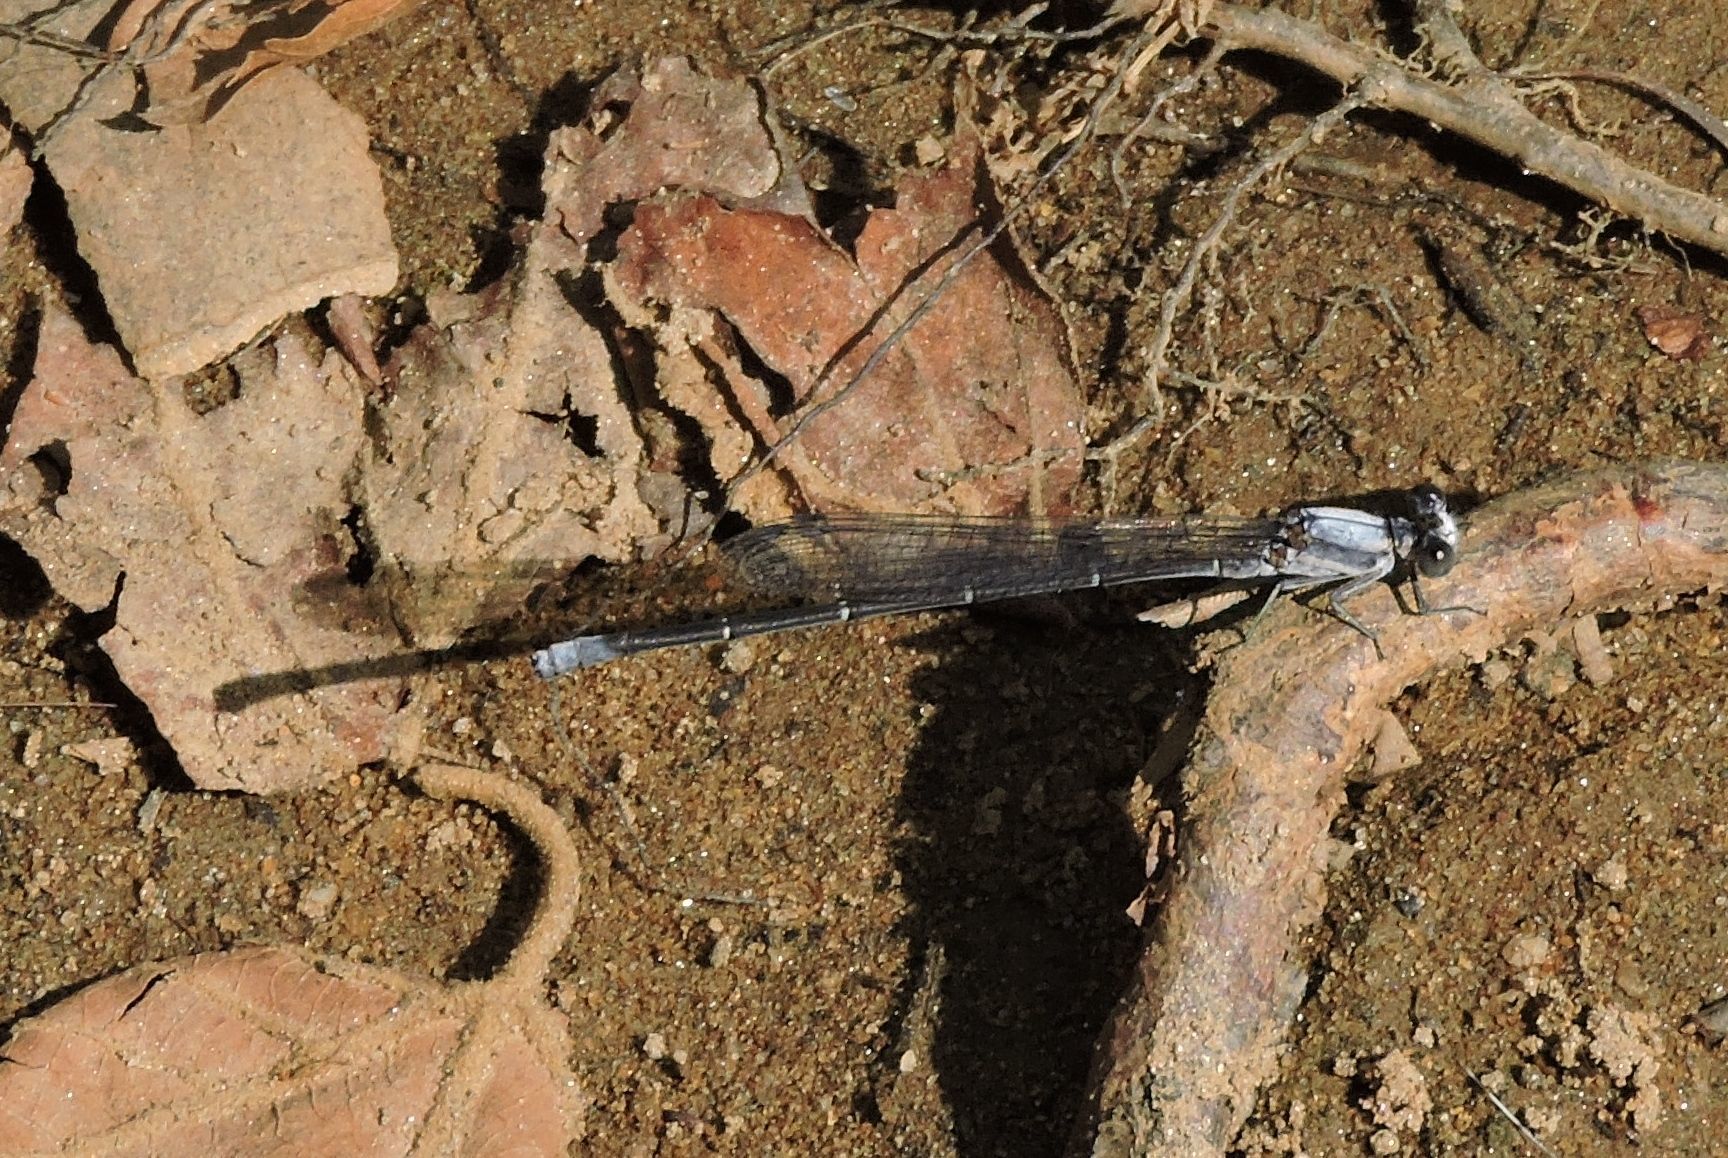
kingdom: Animalia
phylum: Arthropoda
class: Insecta
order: Odonata
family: Coenagrionidae
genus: Argia
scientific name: Argia moesta
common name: Powdered dancer
